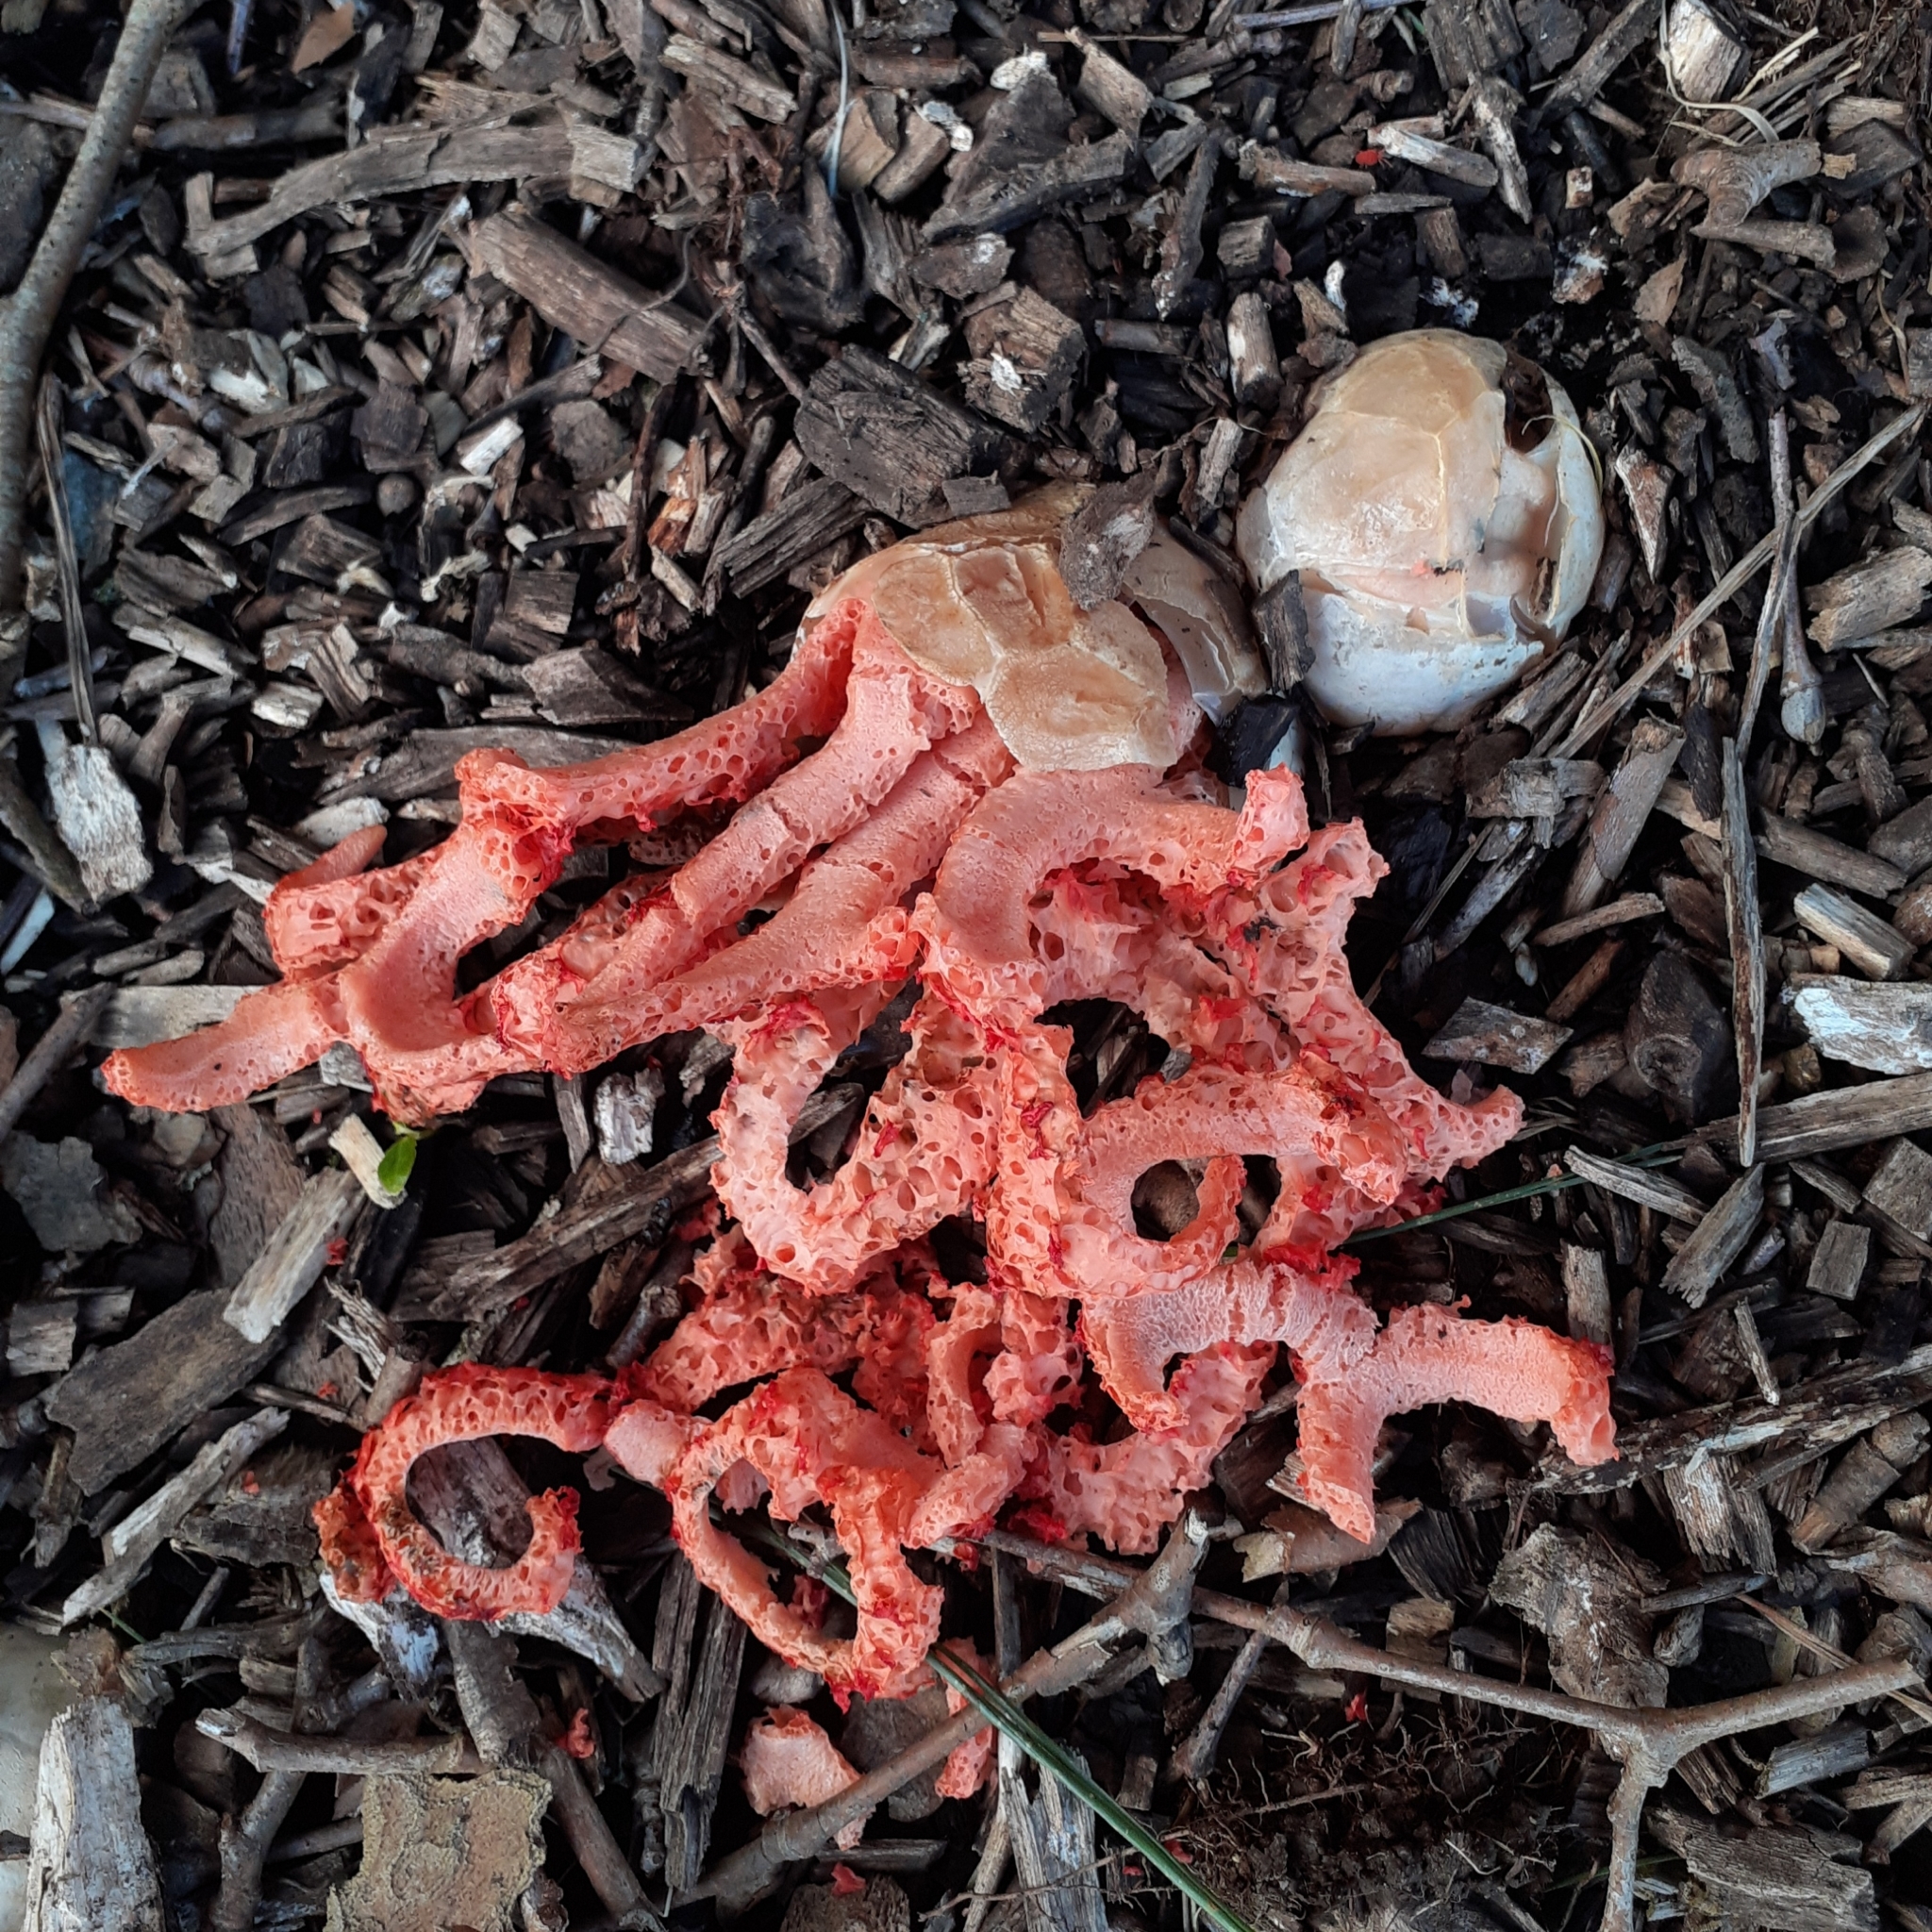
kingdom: Fungi
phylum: Basidiomycota
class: Agaricomycetes
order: Phallales
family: Phallaceae
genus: Clathrus
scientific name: Clathrus ruber
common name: Red cage
